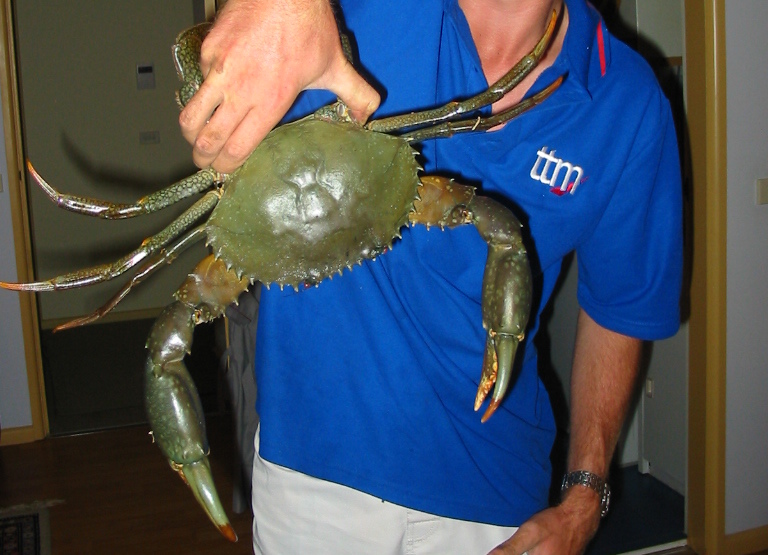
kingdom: Animalia
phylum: Arthropoda
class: Malacostraca
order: Decapoda
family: Portunidae
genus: Scylla
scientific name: Scylla serrata
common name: Giant mud crab
